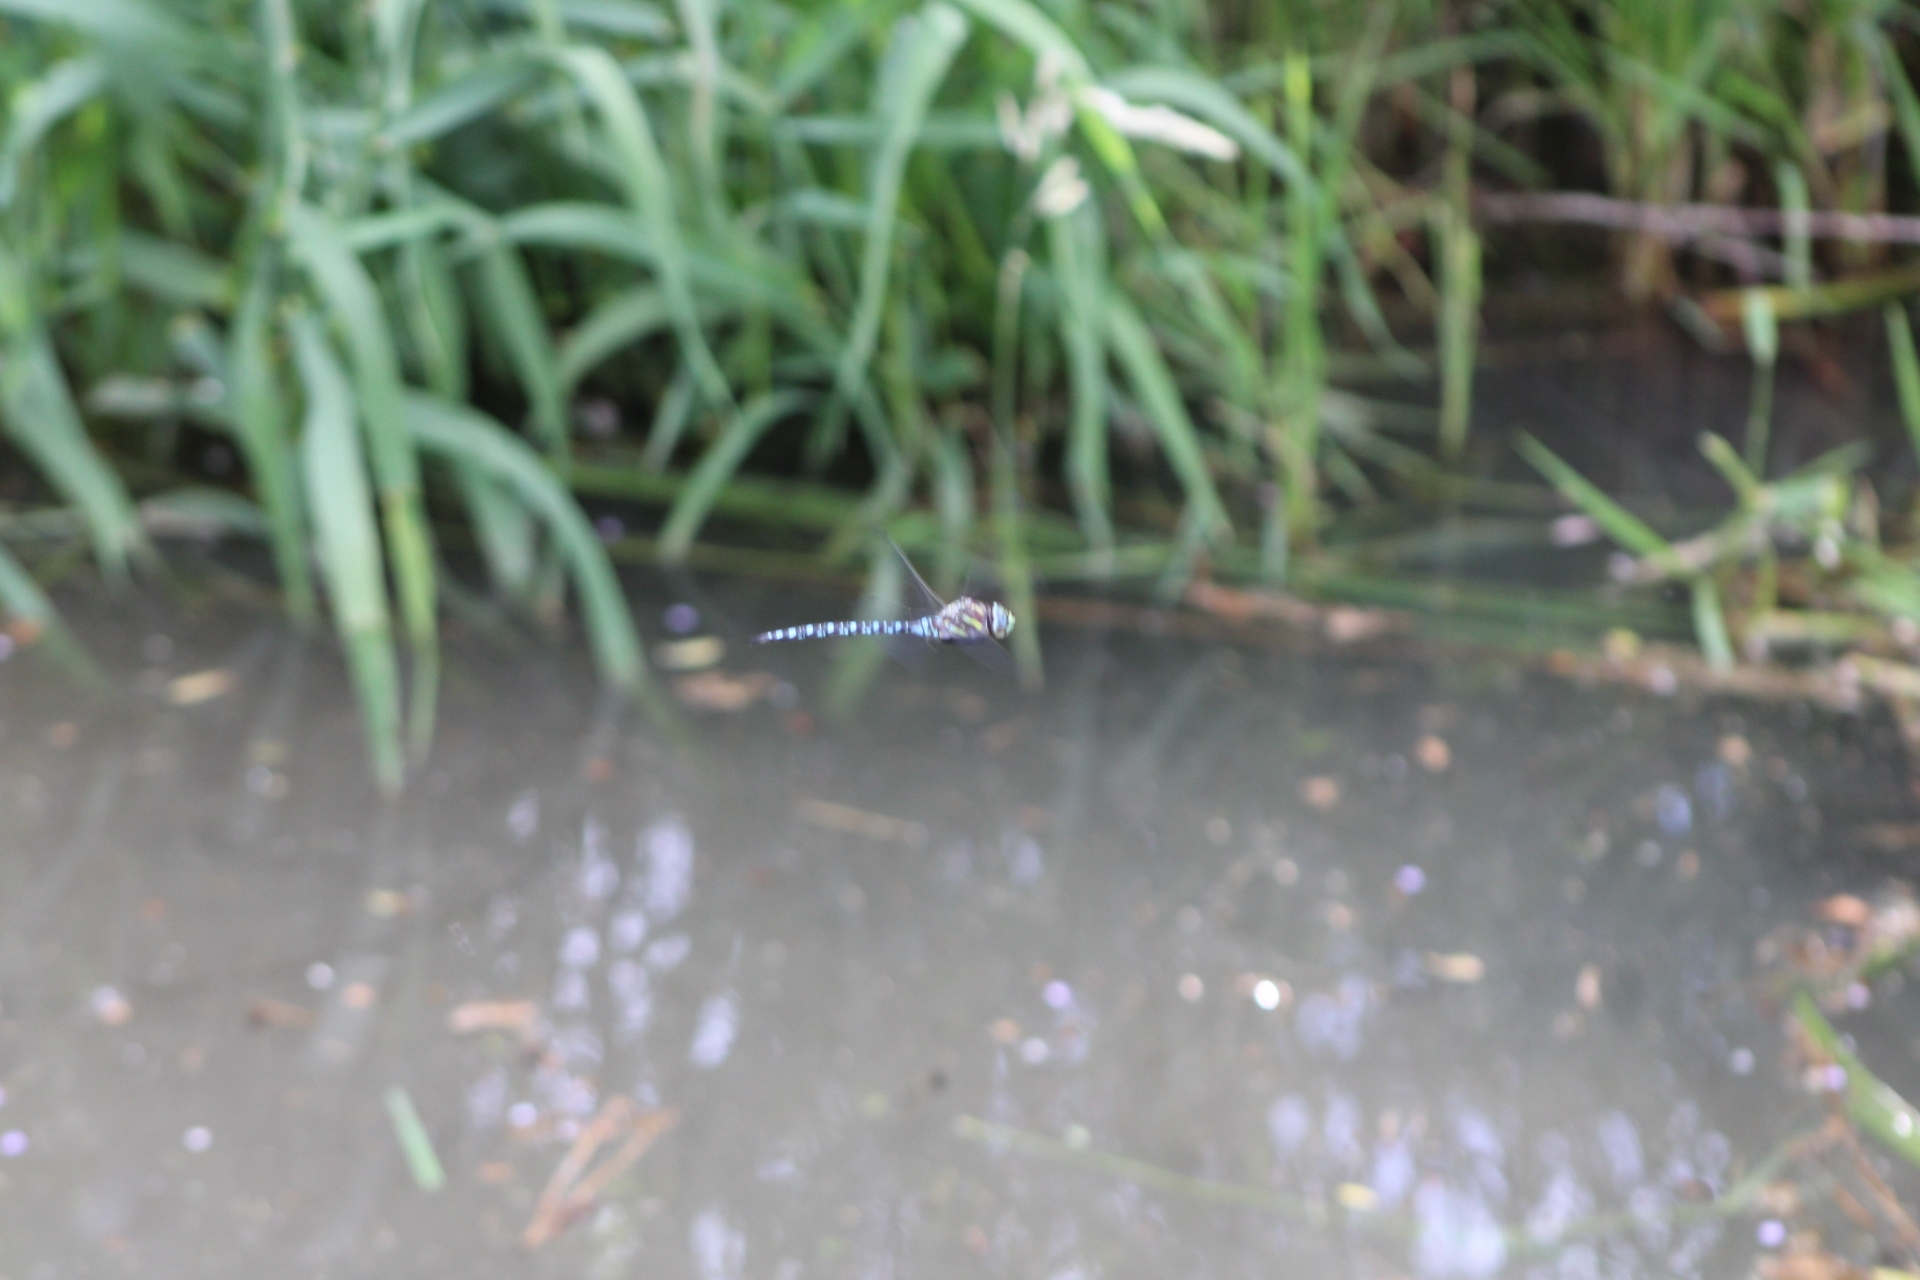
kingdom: Animalia
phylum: Arthropoda
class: Insecta
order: Odonata
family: Aeshnidae
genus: Aeshna
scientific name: Aeshna palmata
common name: Paddle-tailed darner
